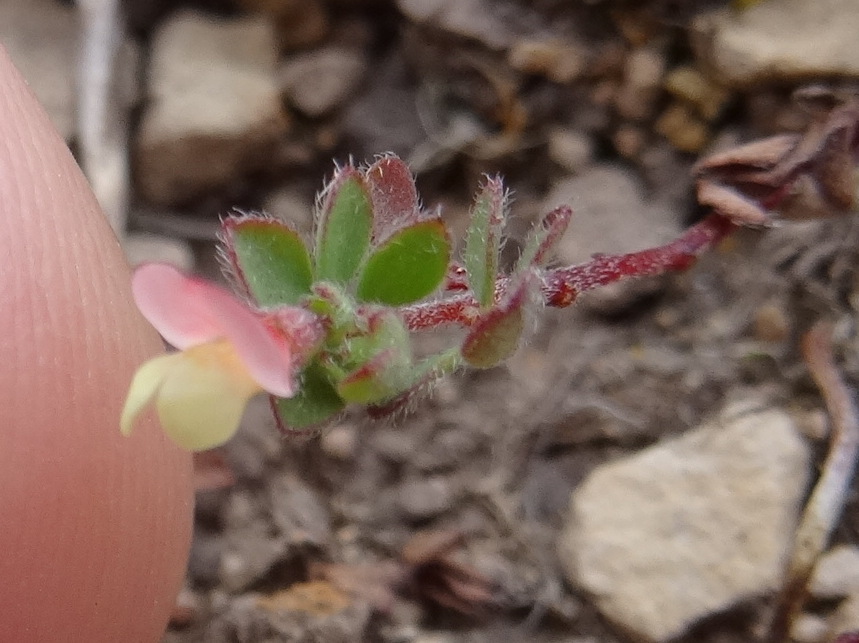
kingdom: Plantae
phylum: Tracheophyta
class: Magnoliopsida
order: Fabales
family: Fabaceae
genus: Acmispon
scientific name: Acmispon parviflorus
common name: Desert deer-vetch
